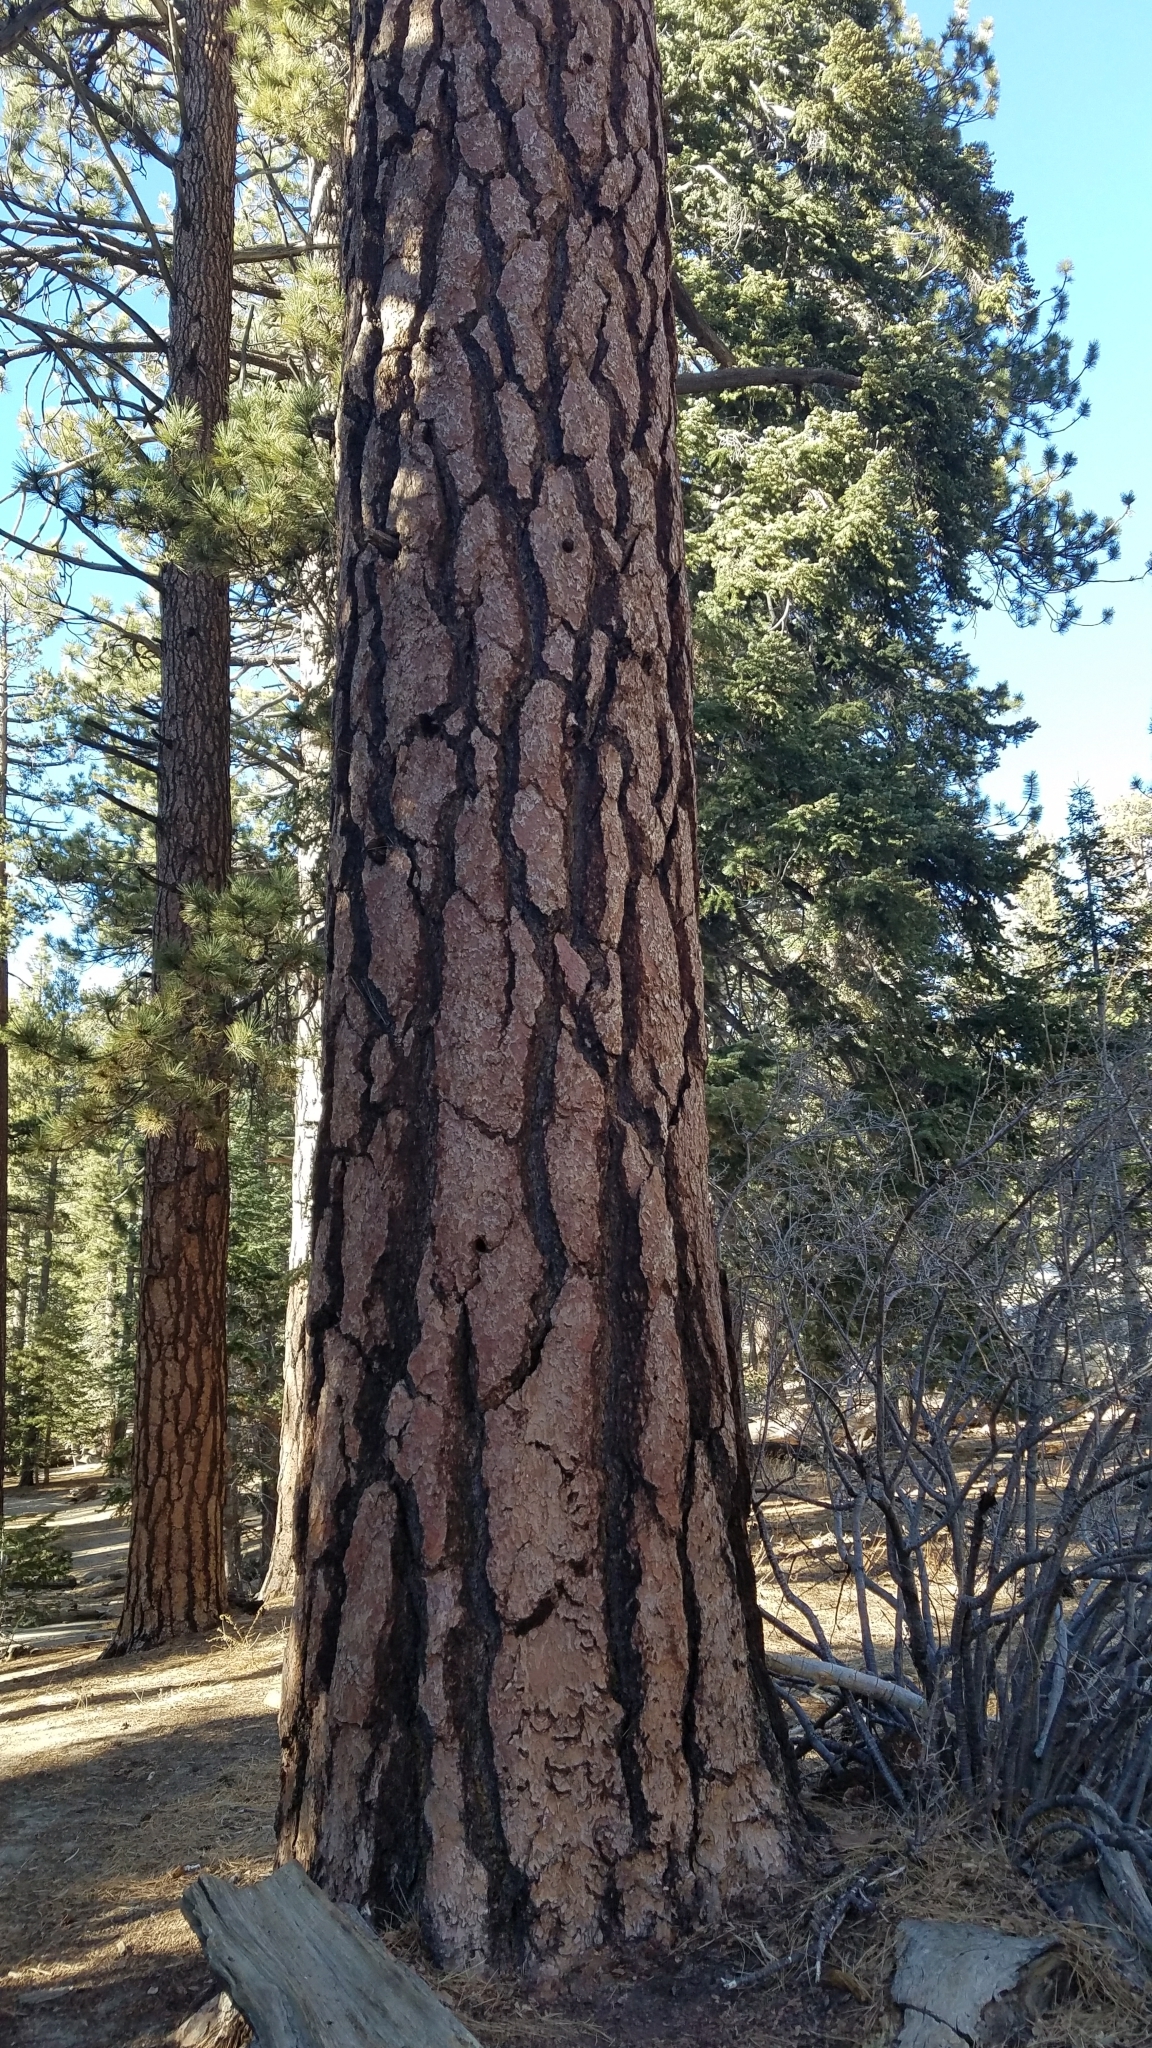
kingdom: Plantae
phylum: Tracheophyta
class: Pinopsida
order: Pinales
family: Pinaceae
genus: Pinus
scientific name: Pinus jeffreyi
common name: Jeffrey pine
